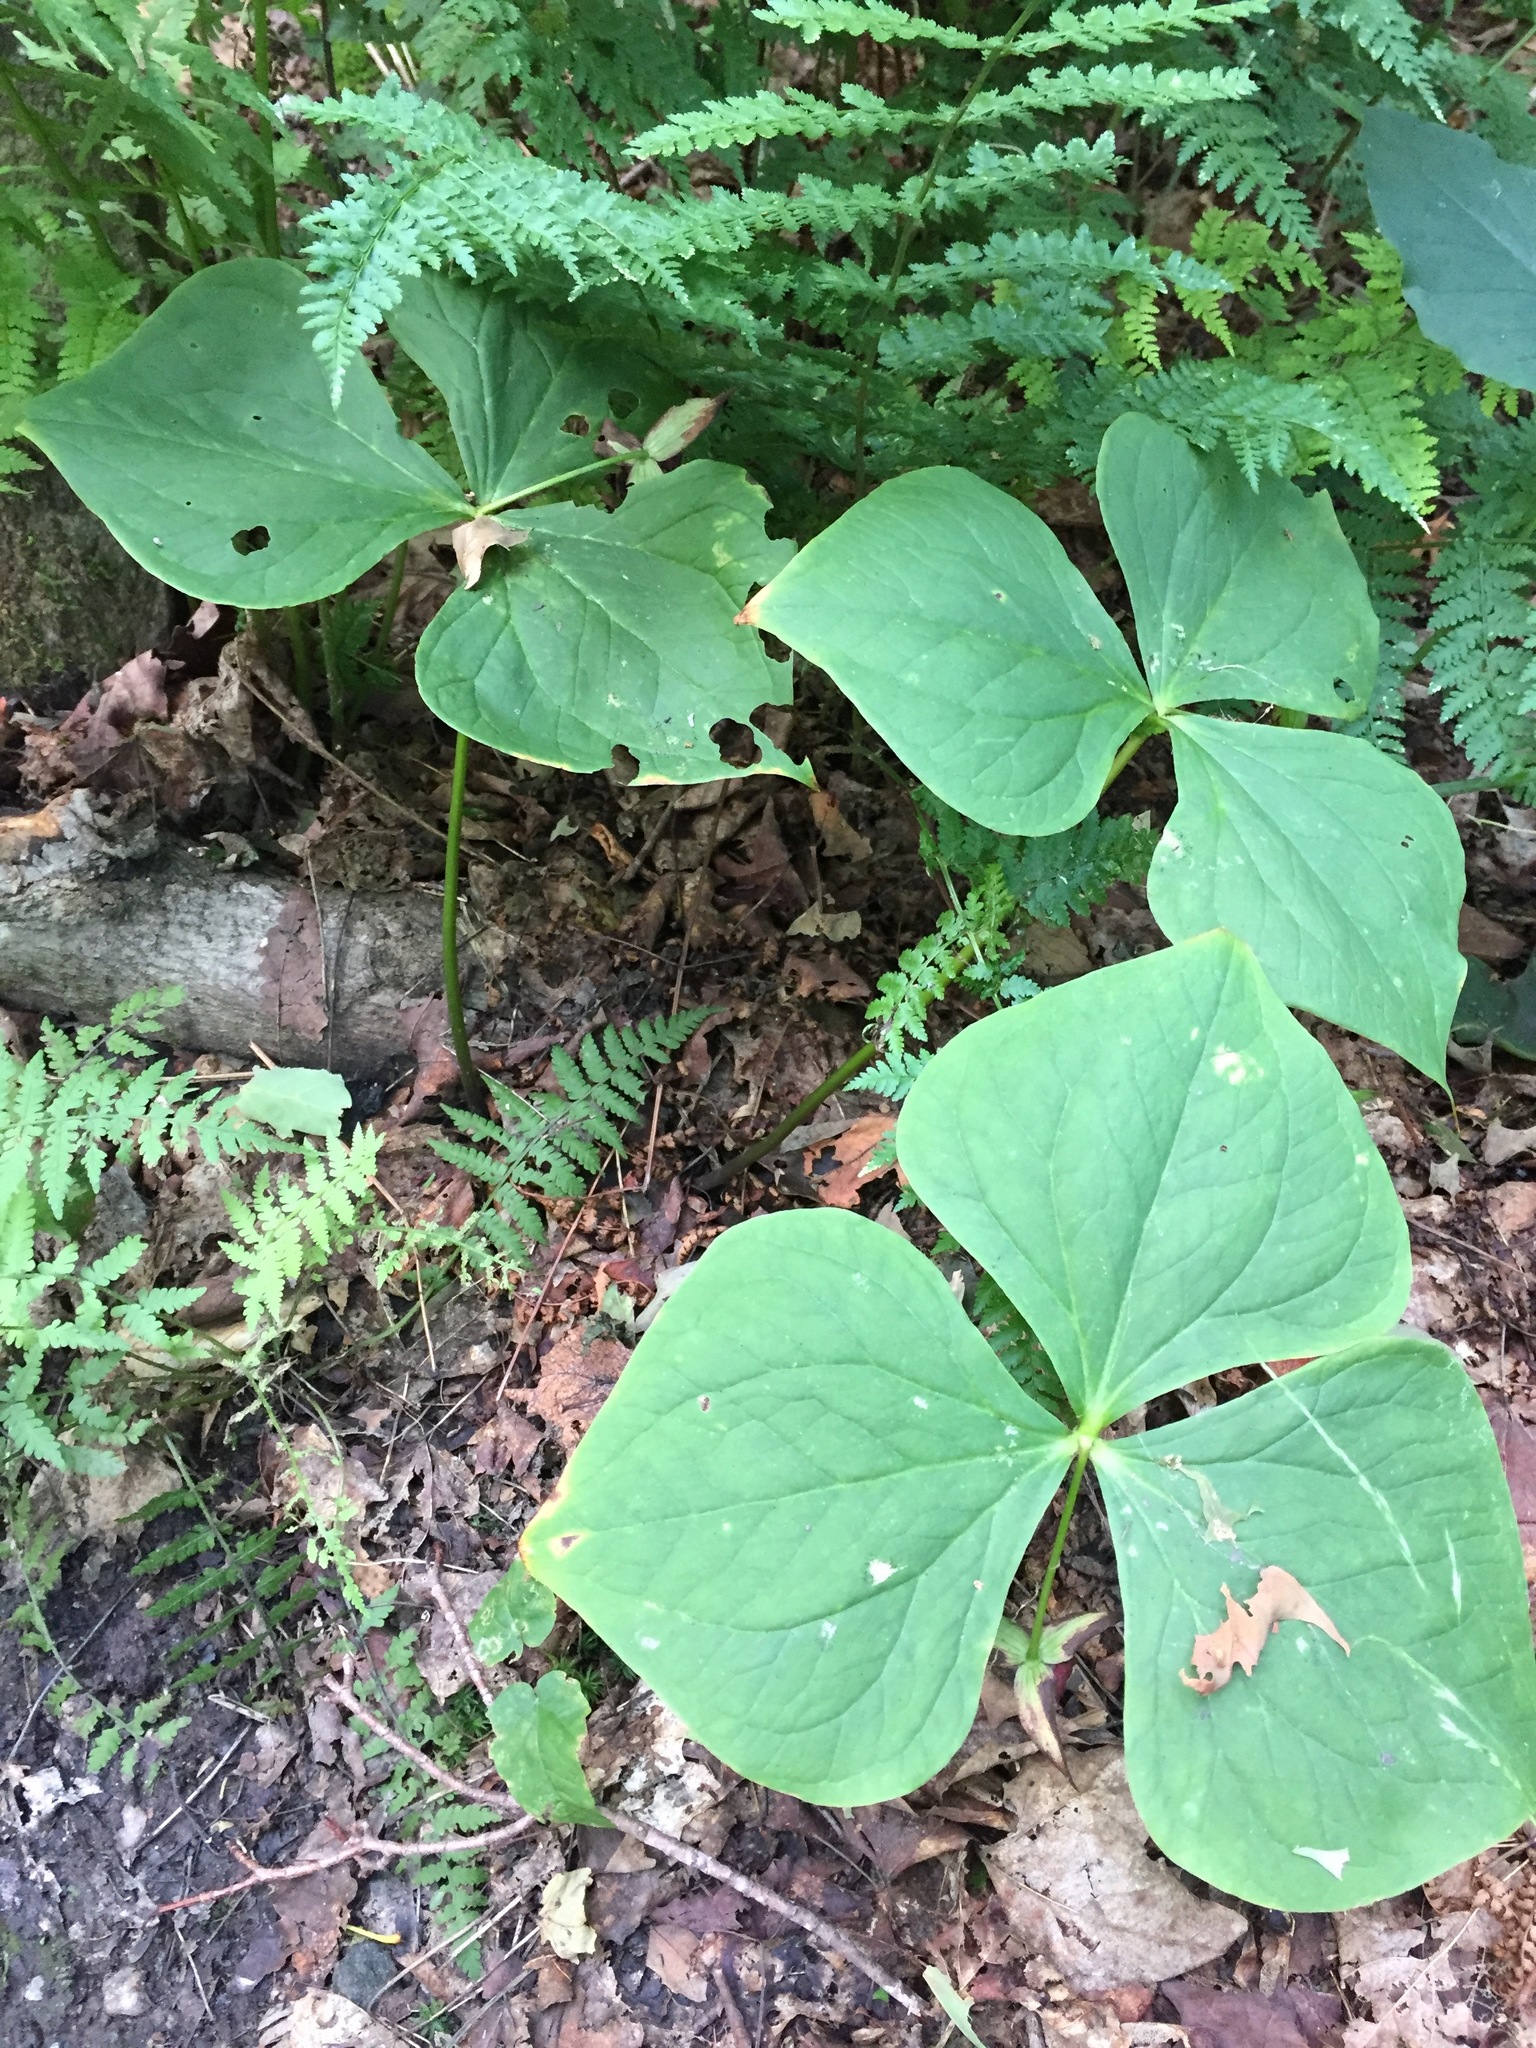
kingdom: Plantae
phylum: Tracheophyta
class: Liliopsida
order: Liliales
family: Melanthiaceae
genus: Trillium
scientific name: Trillium erectum
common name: Purple trillium
